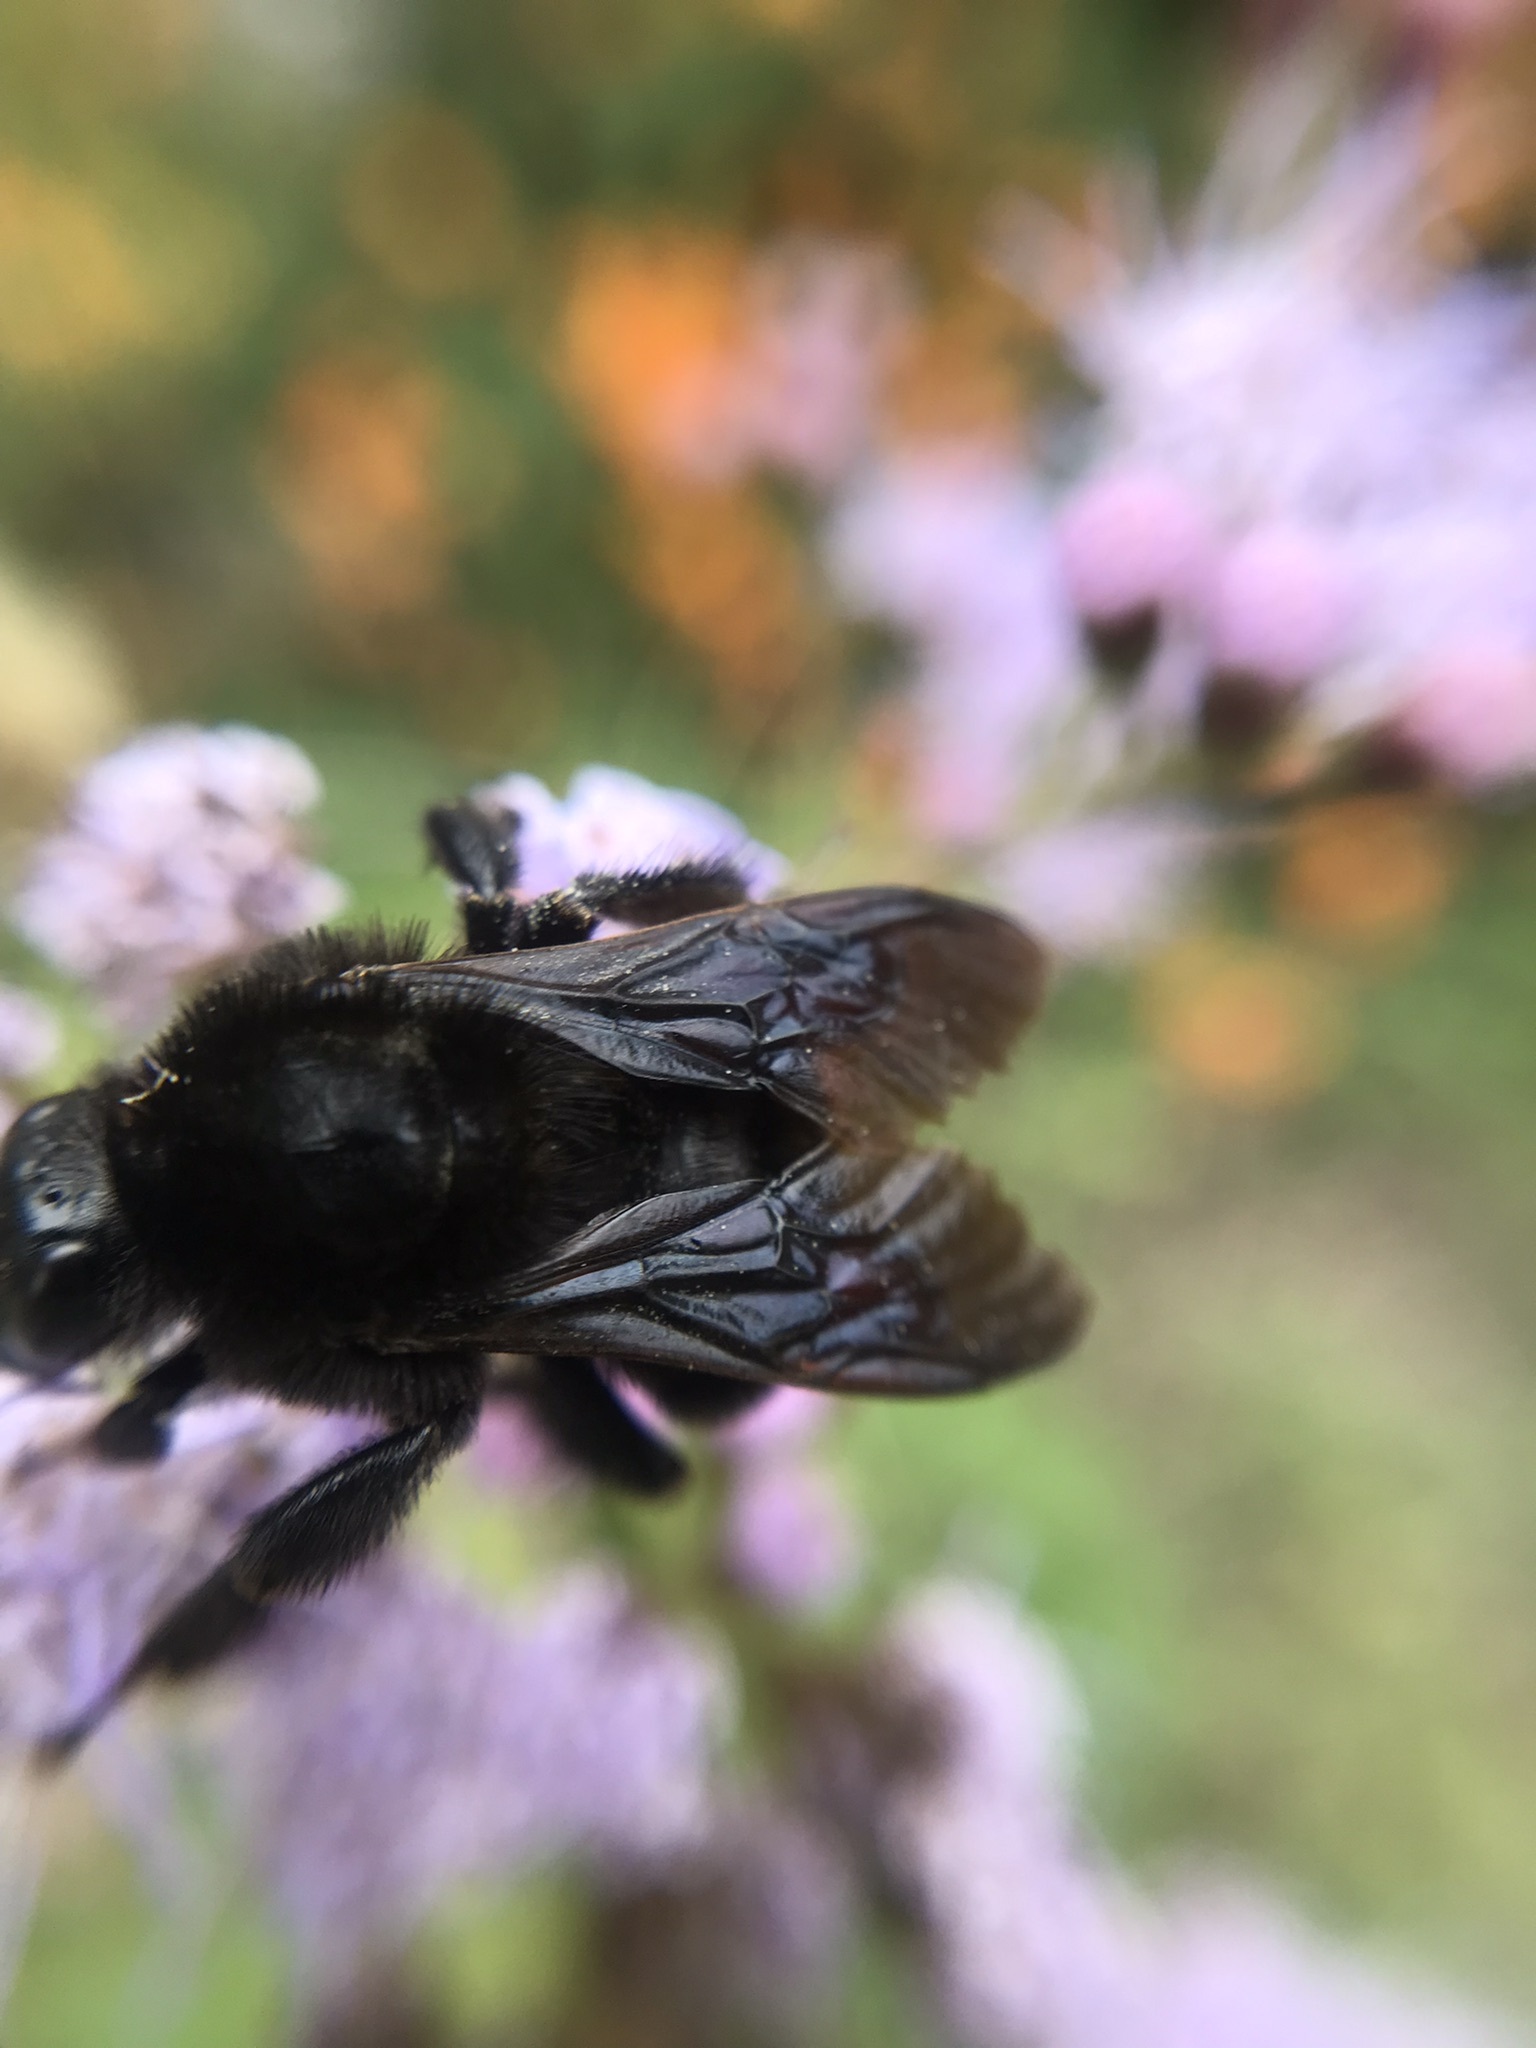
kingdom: Animalia
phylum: Arthropoda
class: Insecta
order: Hymenoptera
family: Apidae
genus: Bombus
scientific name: Bombus pauloensis
